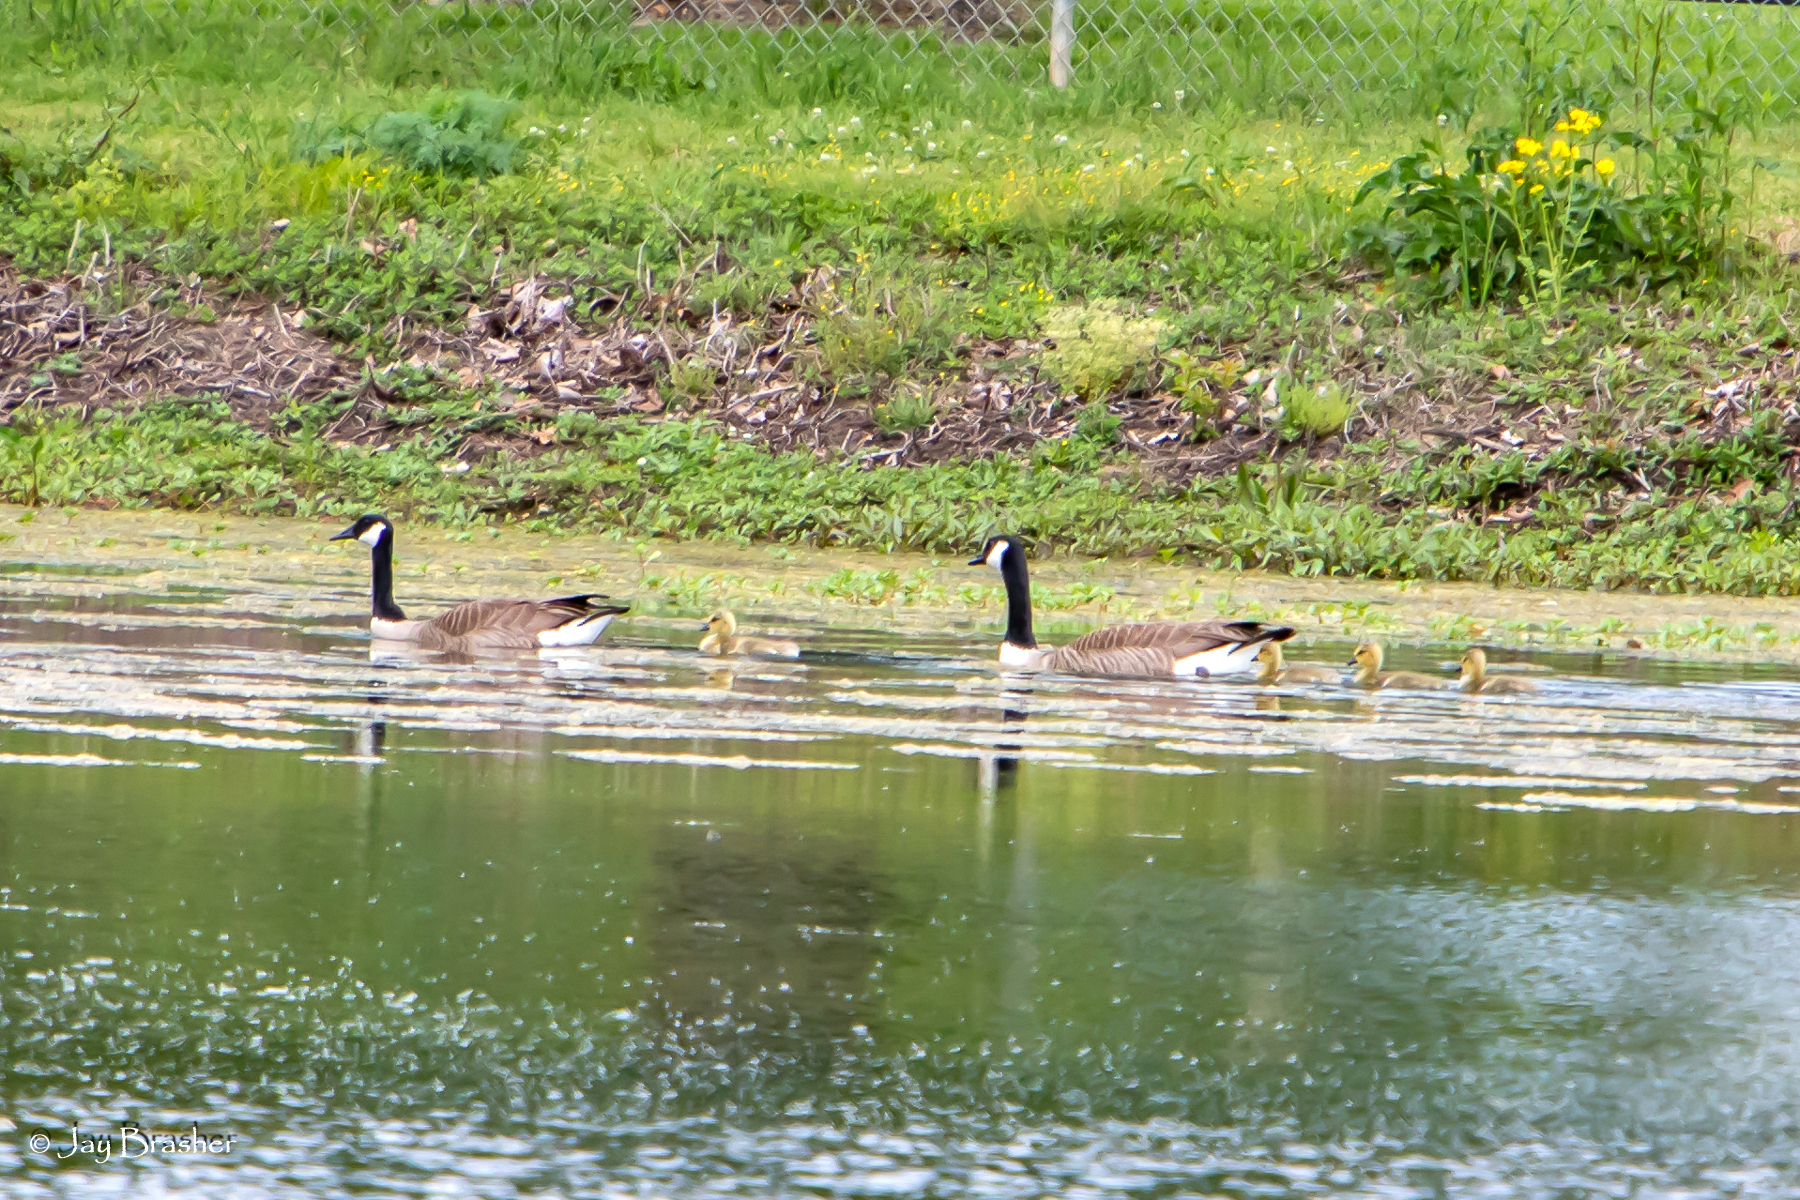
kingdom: Animalia
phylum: Chordata
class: Aves
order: Anseriformes
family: Anatidae
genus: Branta
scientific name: Branta canadensis
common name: Canada goose
